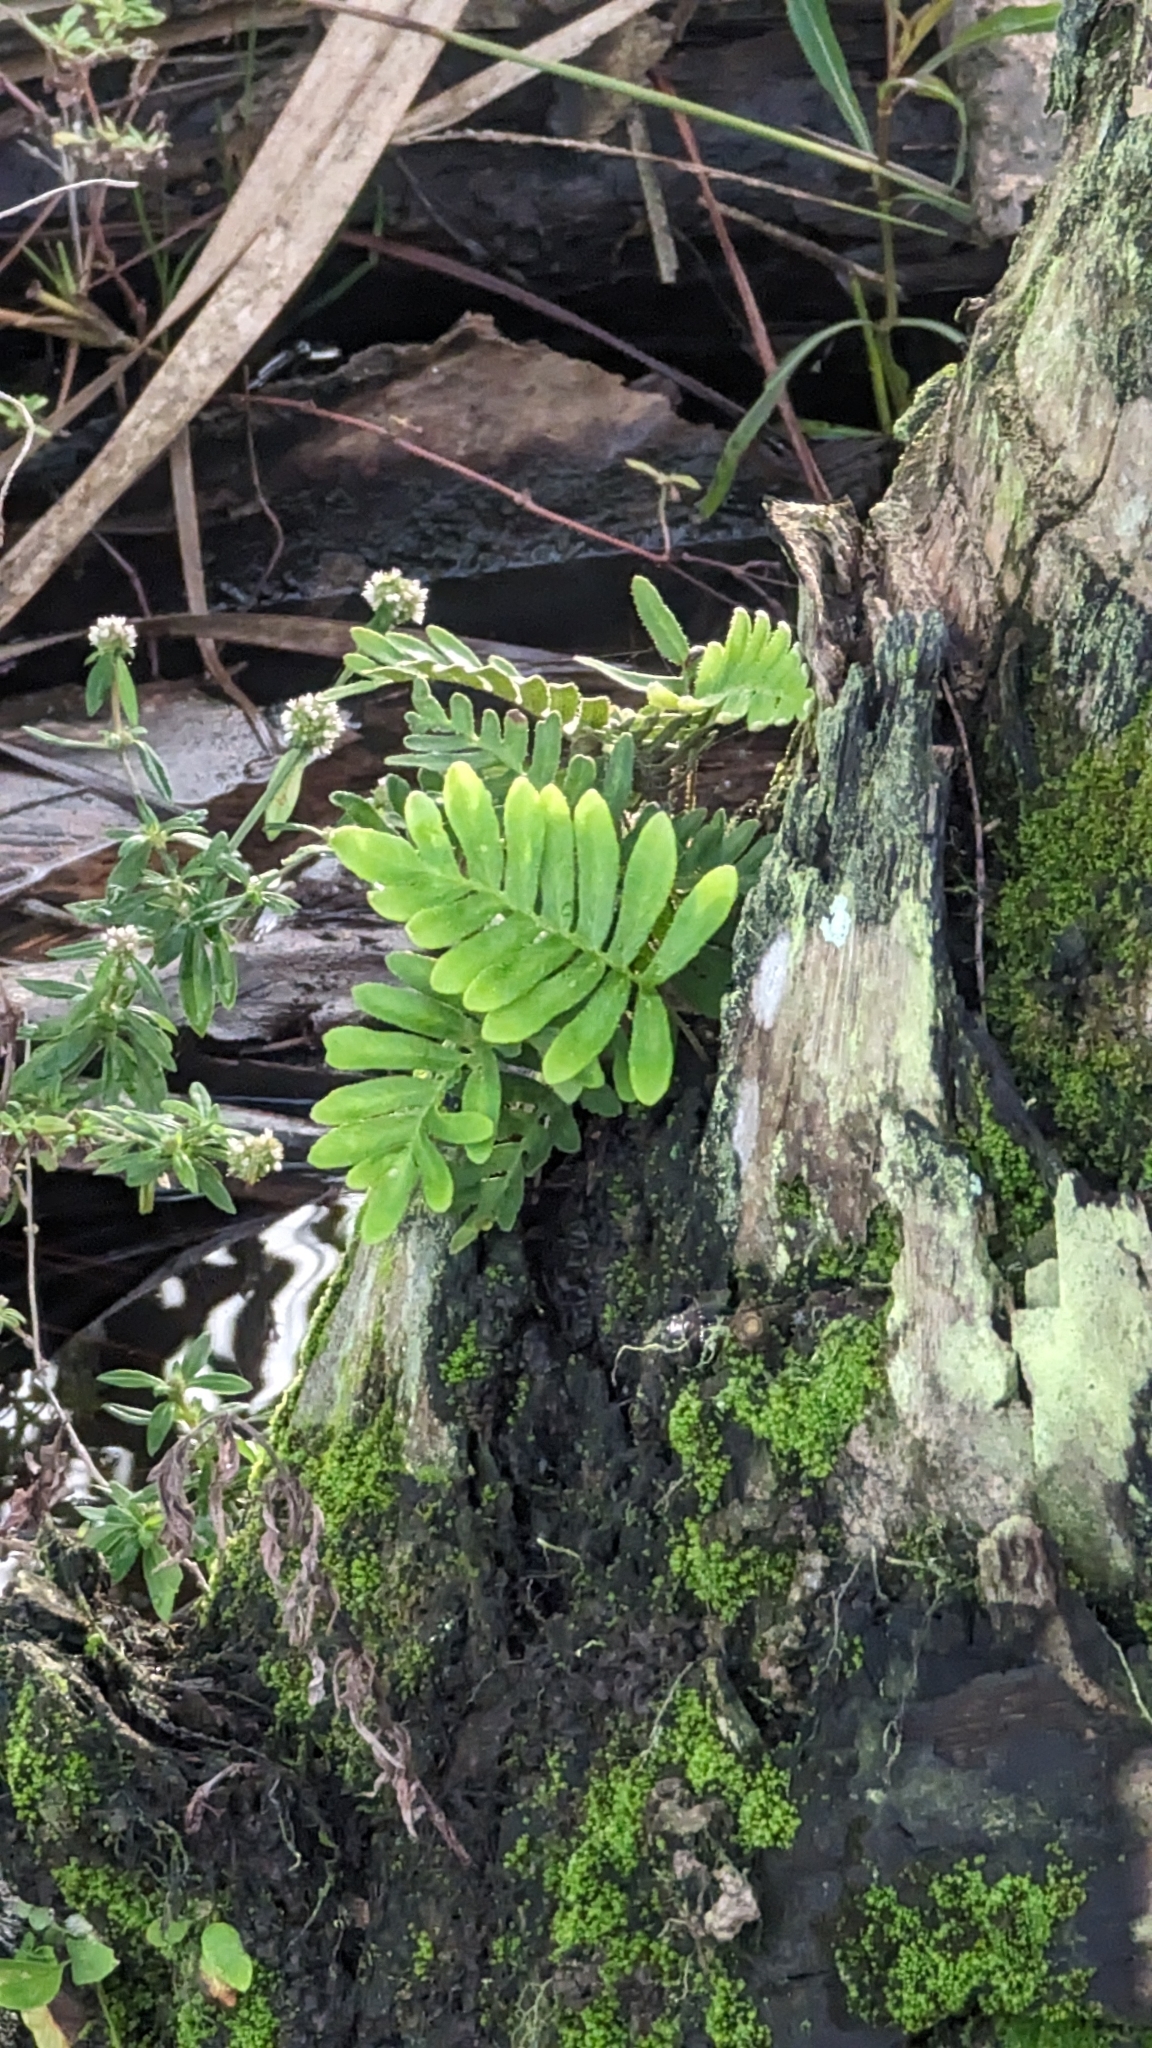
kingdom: Plantae
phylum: Tracheophyta
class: Polypodiopsida
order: Polypodiales
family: Polypodiaceae
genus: Pleopeltis
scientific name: Pleopeltis michauxiana
